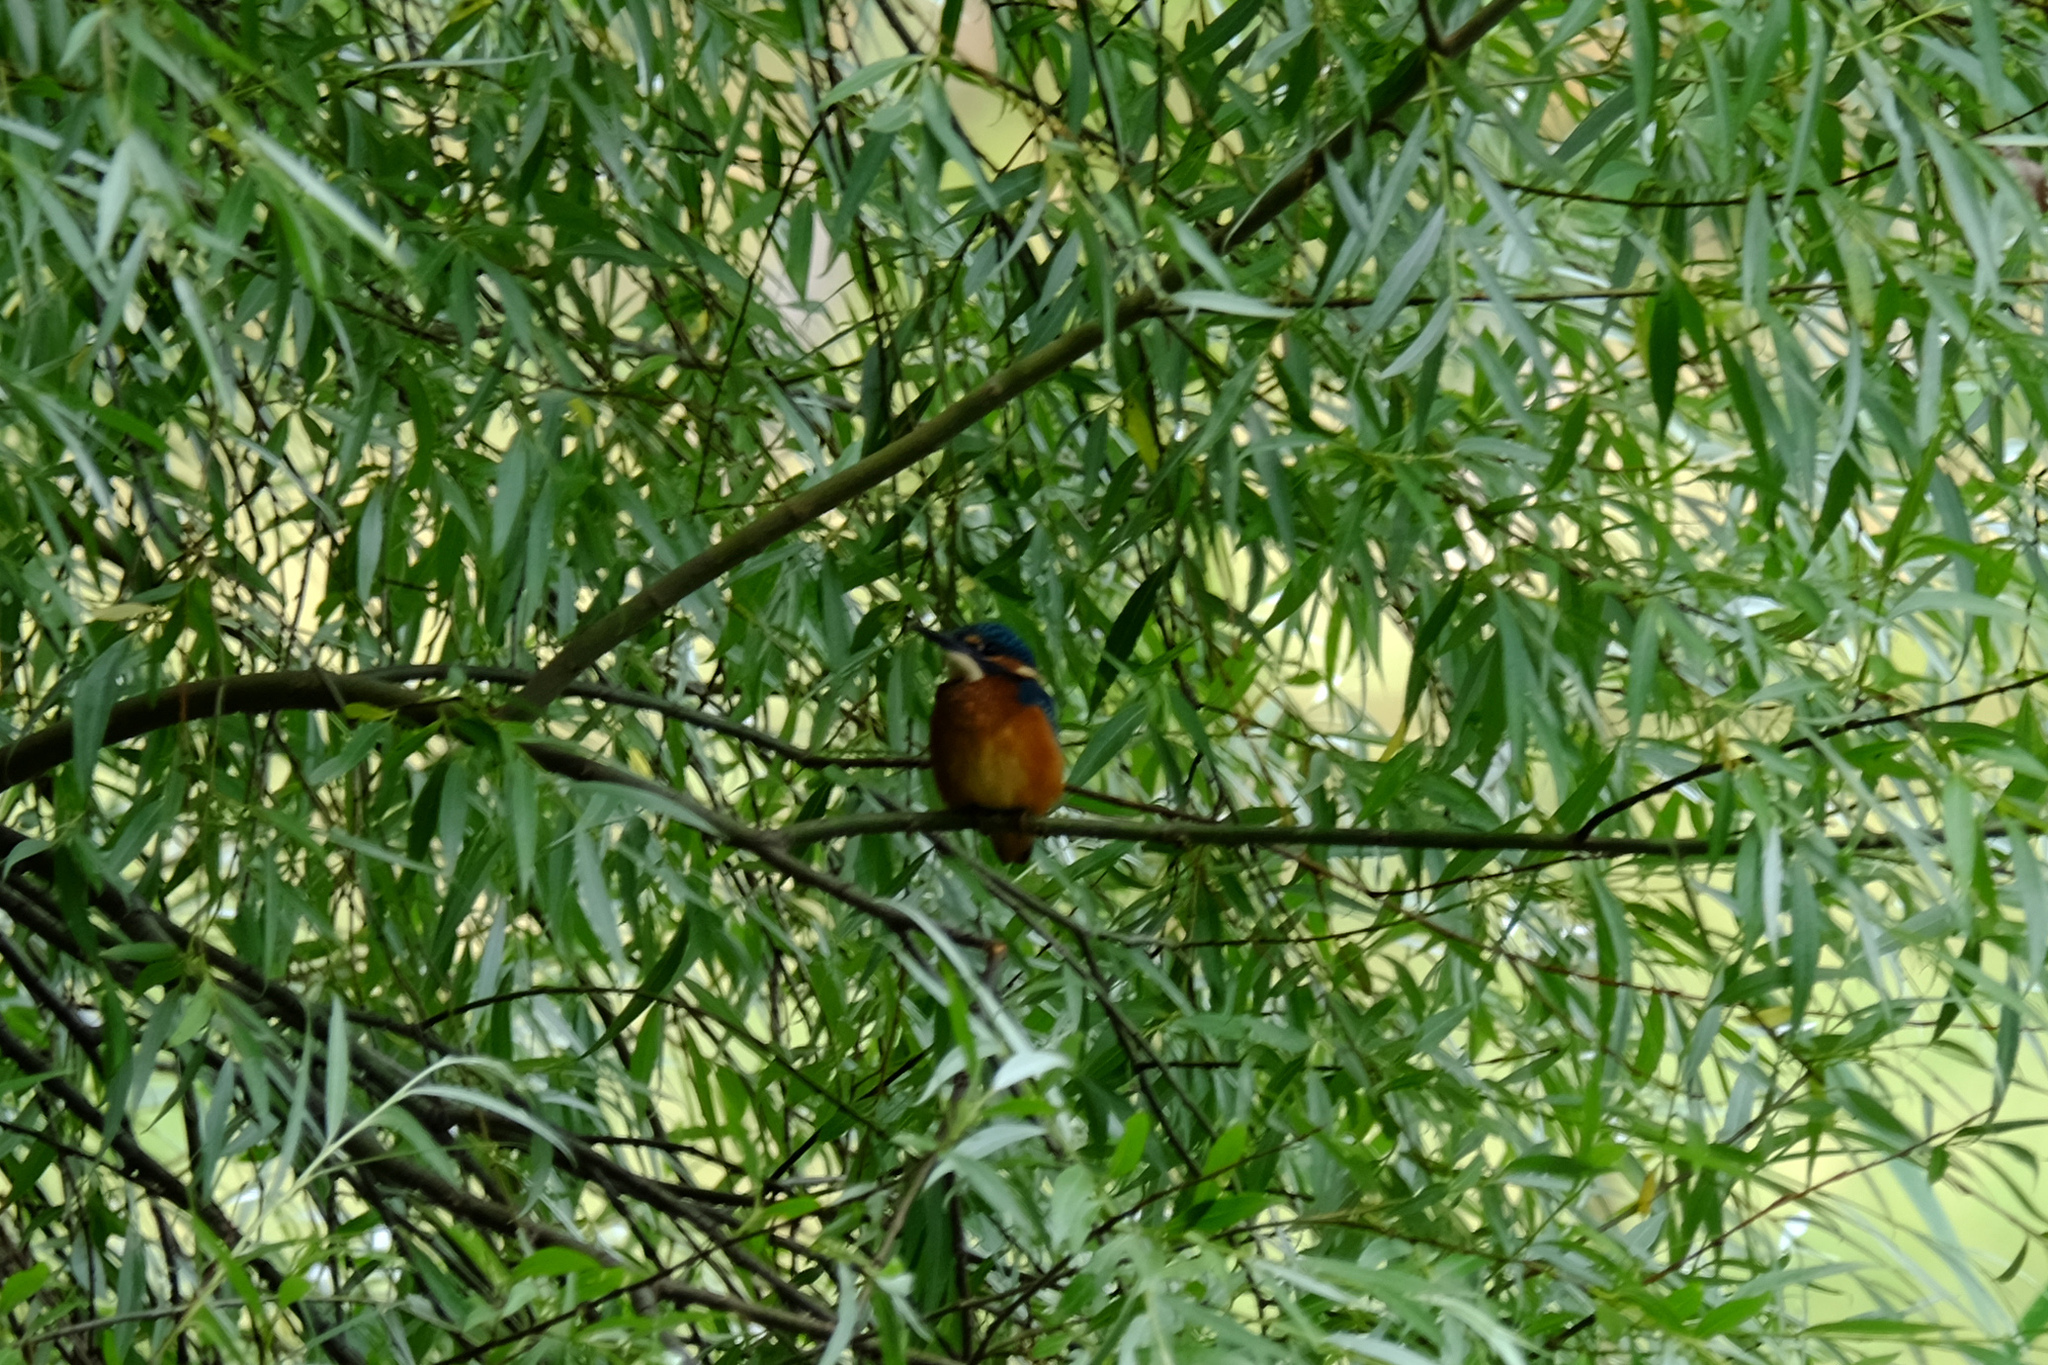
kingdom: Animalia
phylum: Chordata
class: Aves
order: Coraciiformes
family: Alcedinidae
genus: Alcedo
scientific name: Alcedo atthis
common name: Common kingfisher
